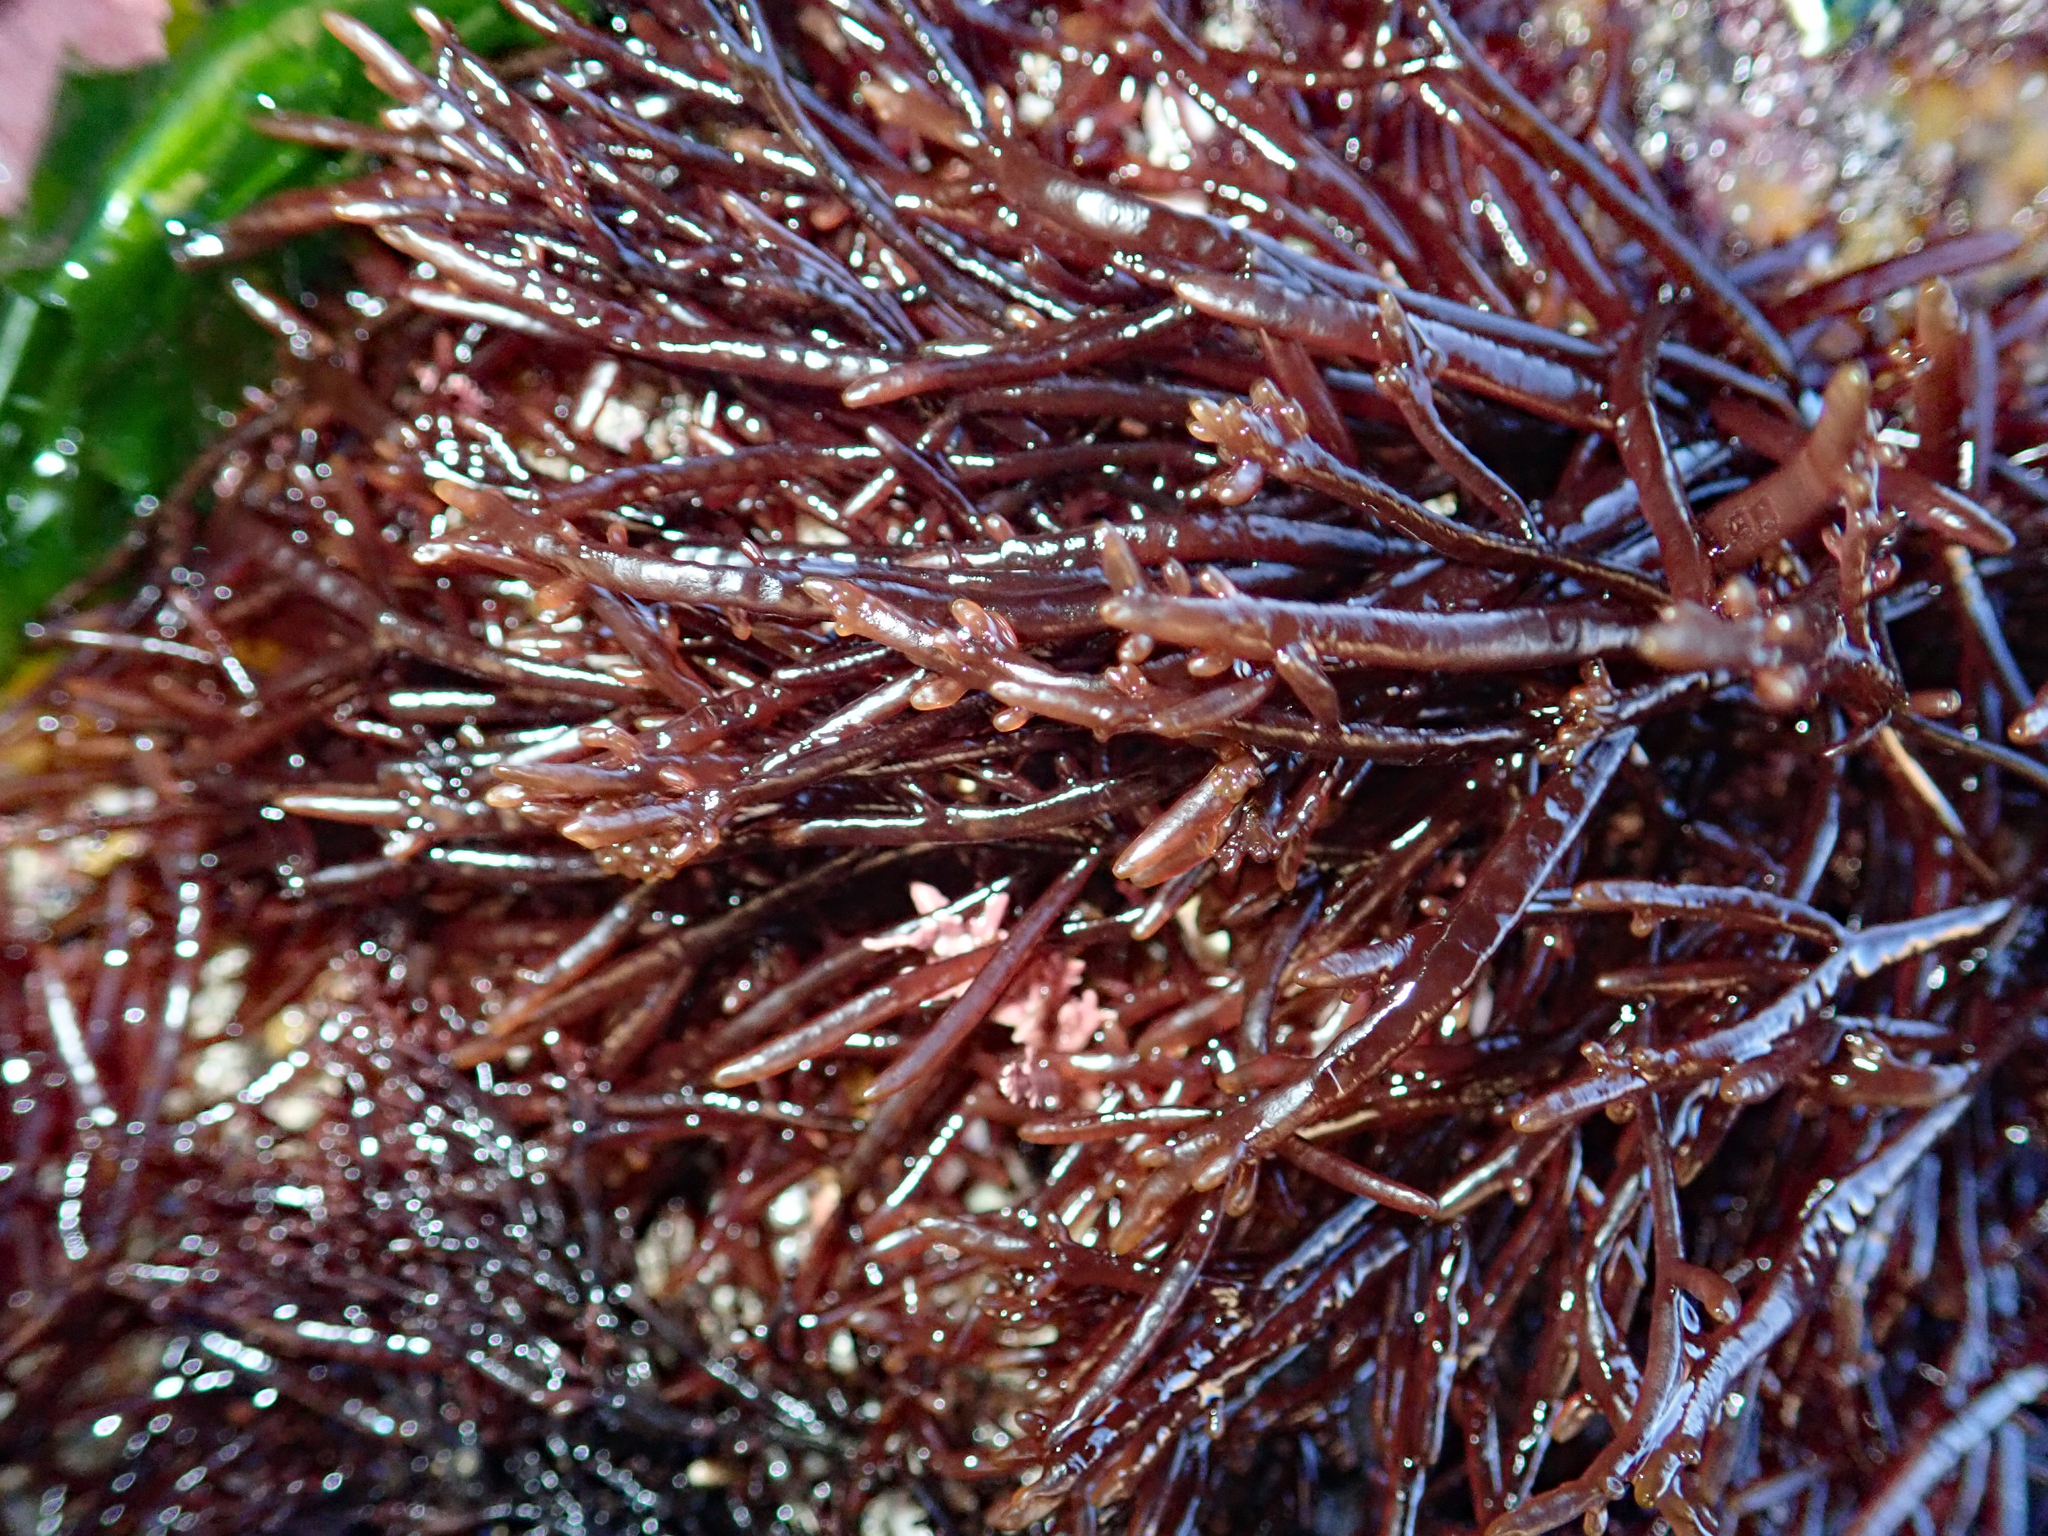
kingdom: Plantae
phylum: Rhodophyta
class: Florideophyceae
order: Rhodymeniales
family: Champiaceae
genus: Champia
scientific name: Champia novae-zelandiae
